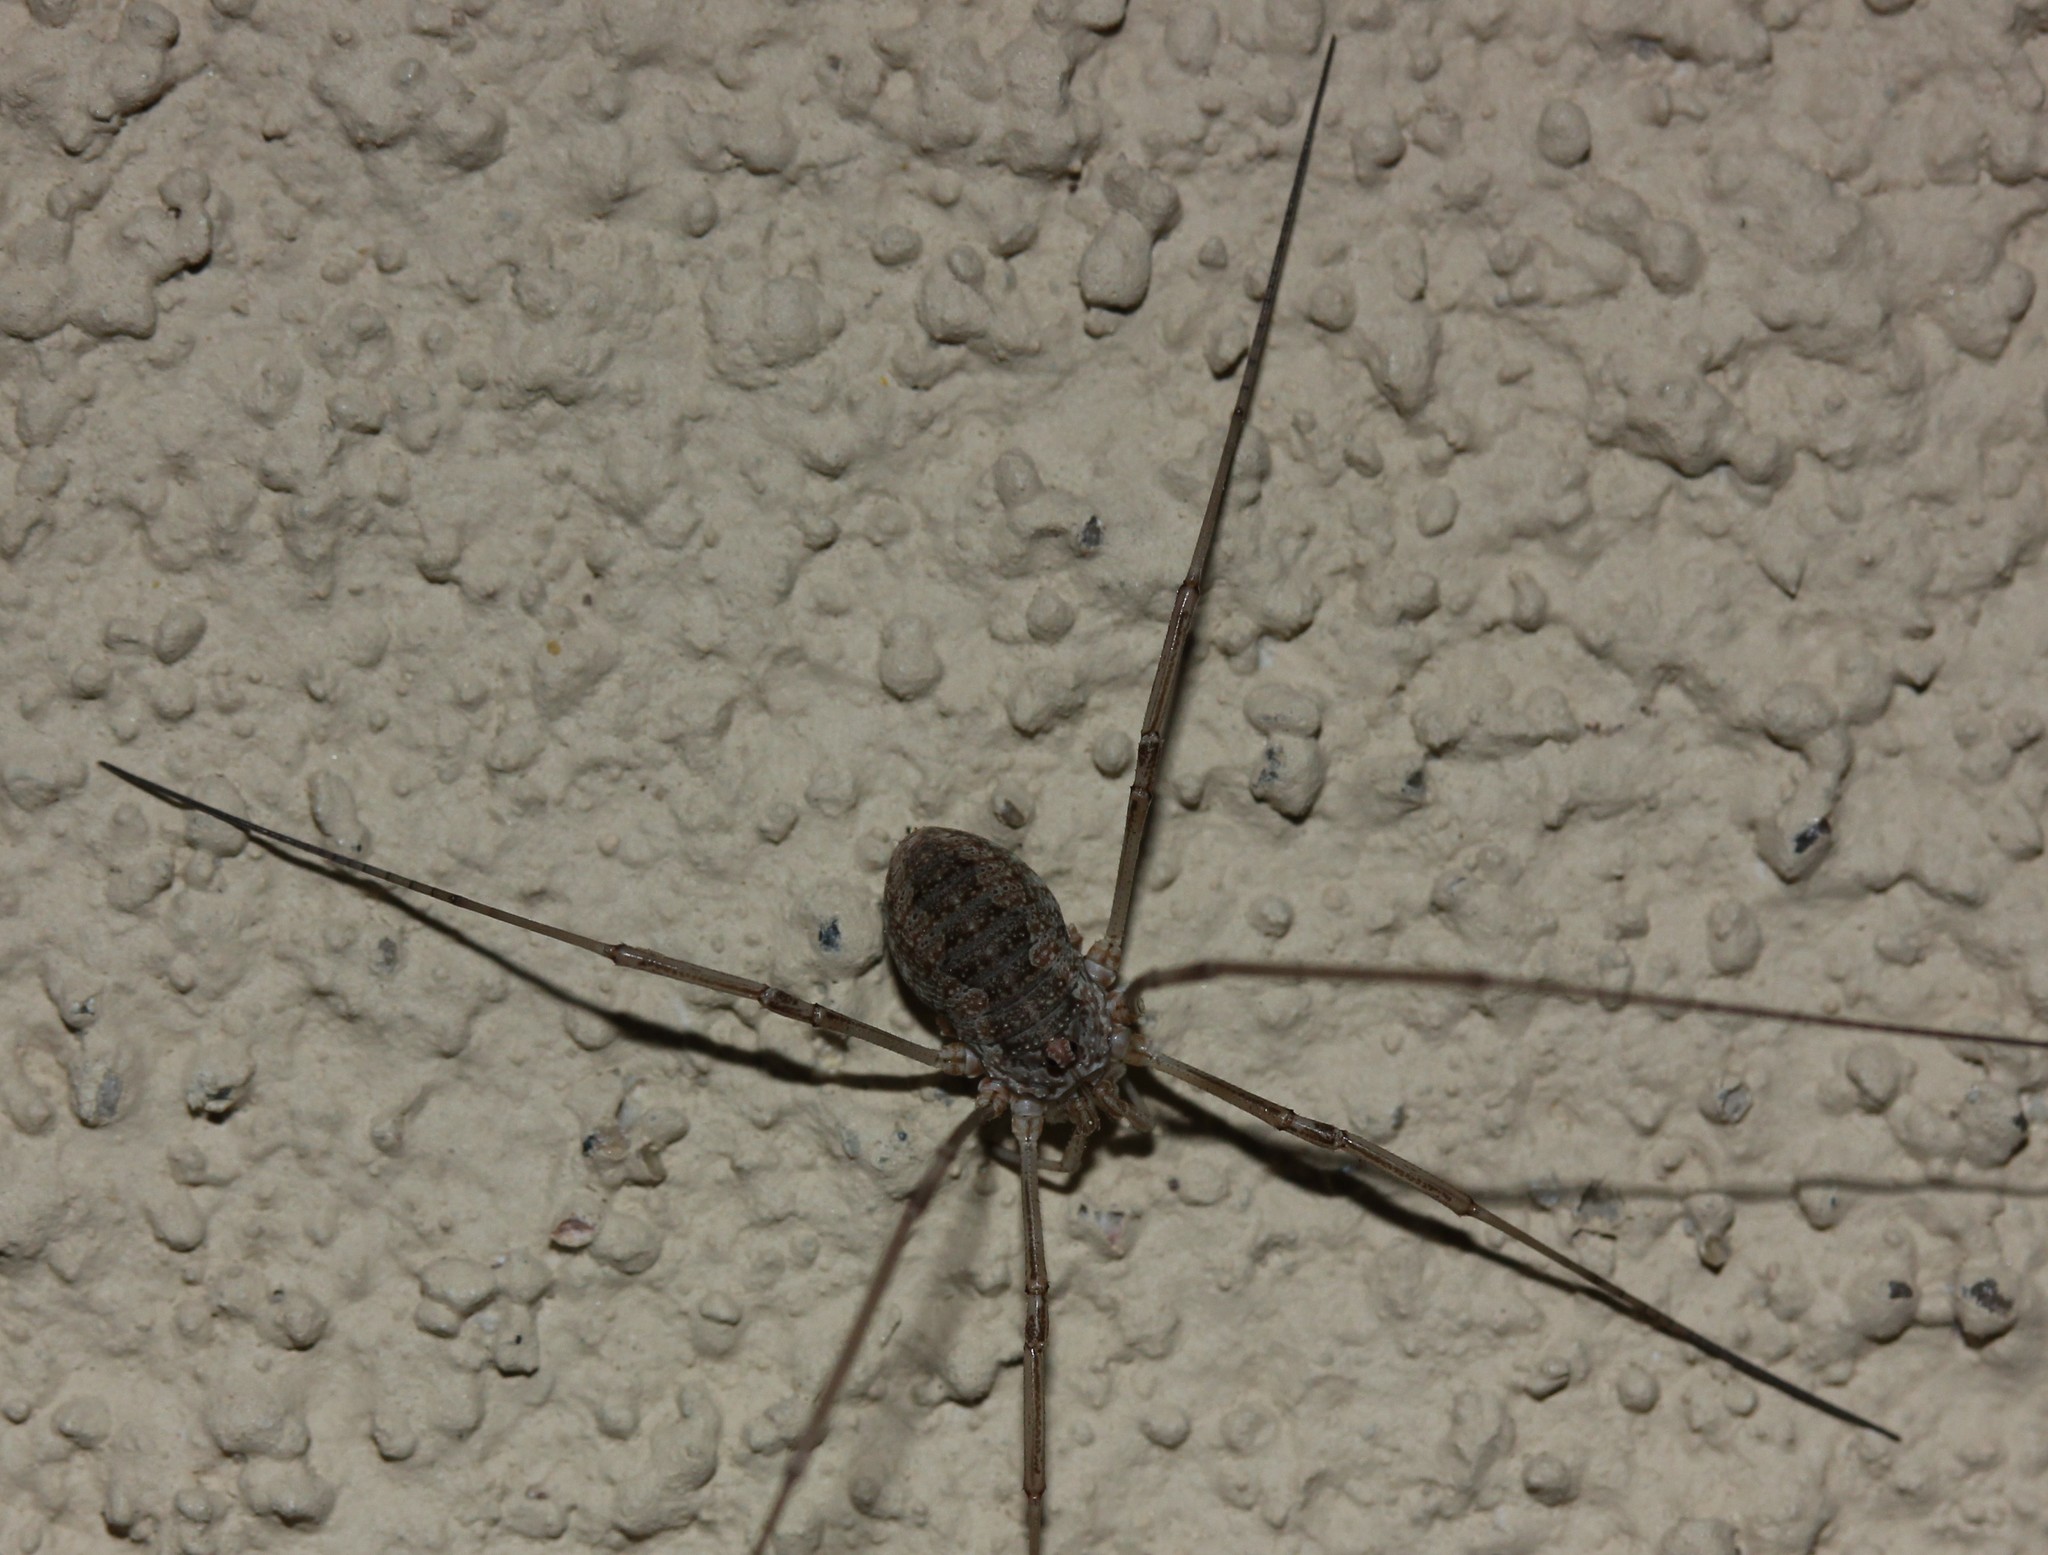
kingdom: Animalia
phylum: Arthropoda
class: Arachnida
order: Opiliones
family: Phalangiidae
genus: Phalangium
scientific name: Phalangium opilio
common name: Daddy longleg
